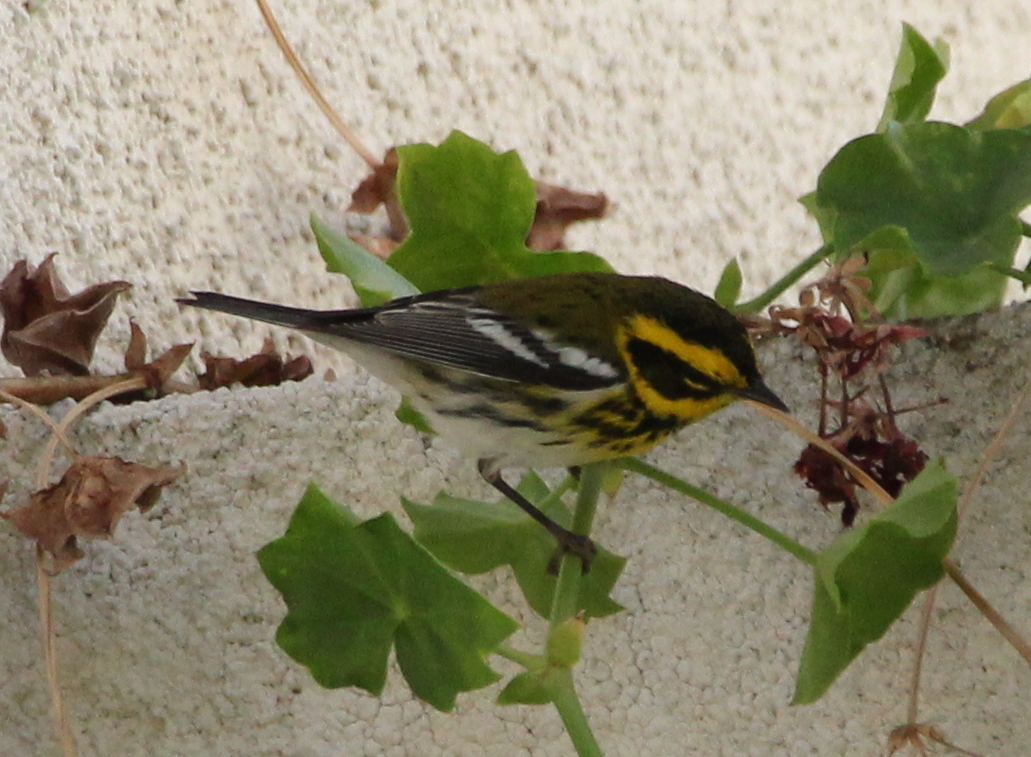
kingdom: Animalia
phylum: Chordata
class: Aves
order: Passeriformes
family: Parulidae
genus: Setophaga
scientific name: Setophaga townsendi
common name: Townsend's warbler
